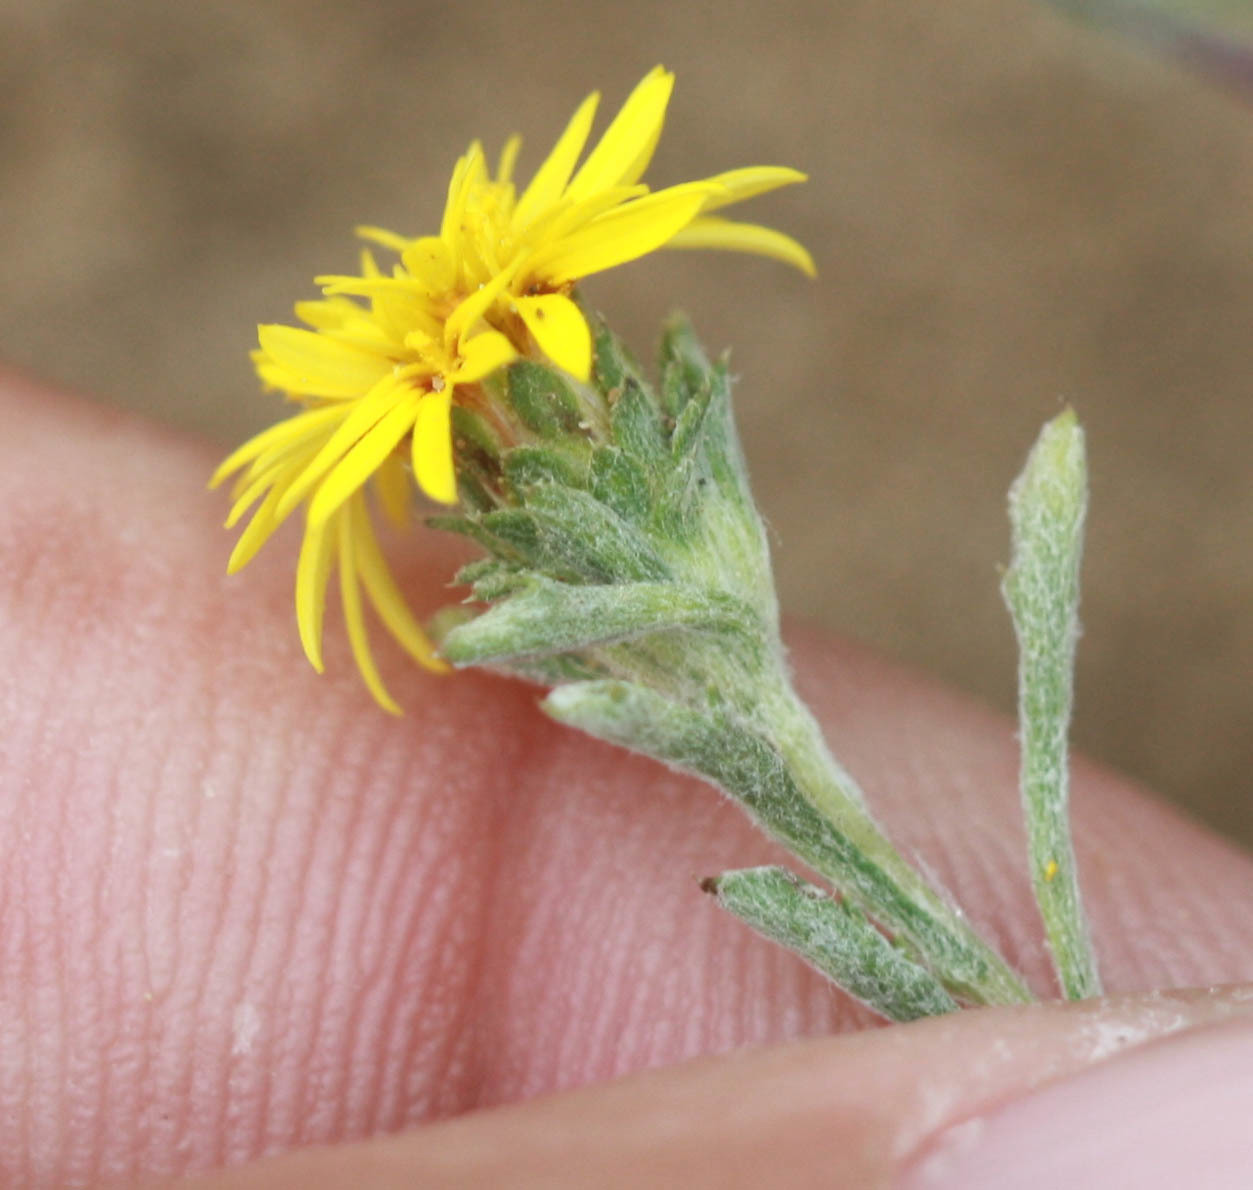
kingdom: Plantae
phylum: Tracheophyta
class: Magnoliopsida
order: Asterales
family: Asteraceae
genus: Lessingia
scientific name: Lessingia germanorum
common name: San francisco lessingia
